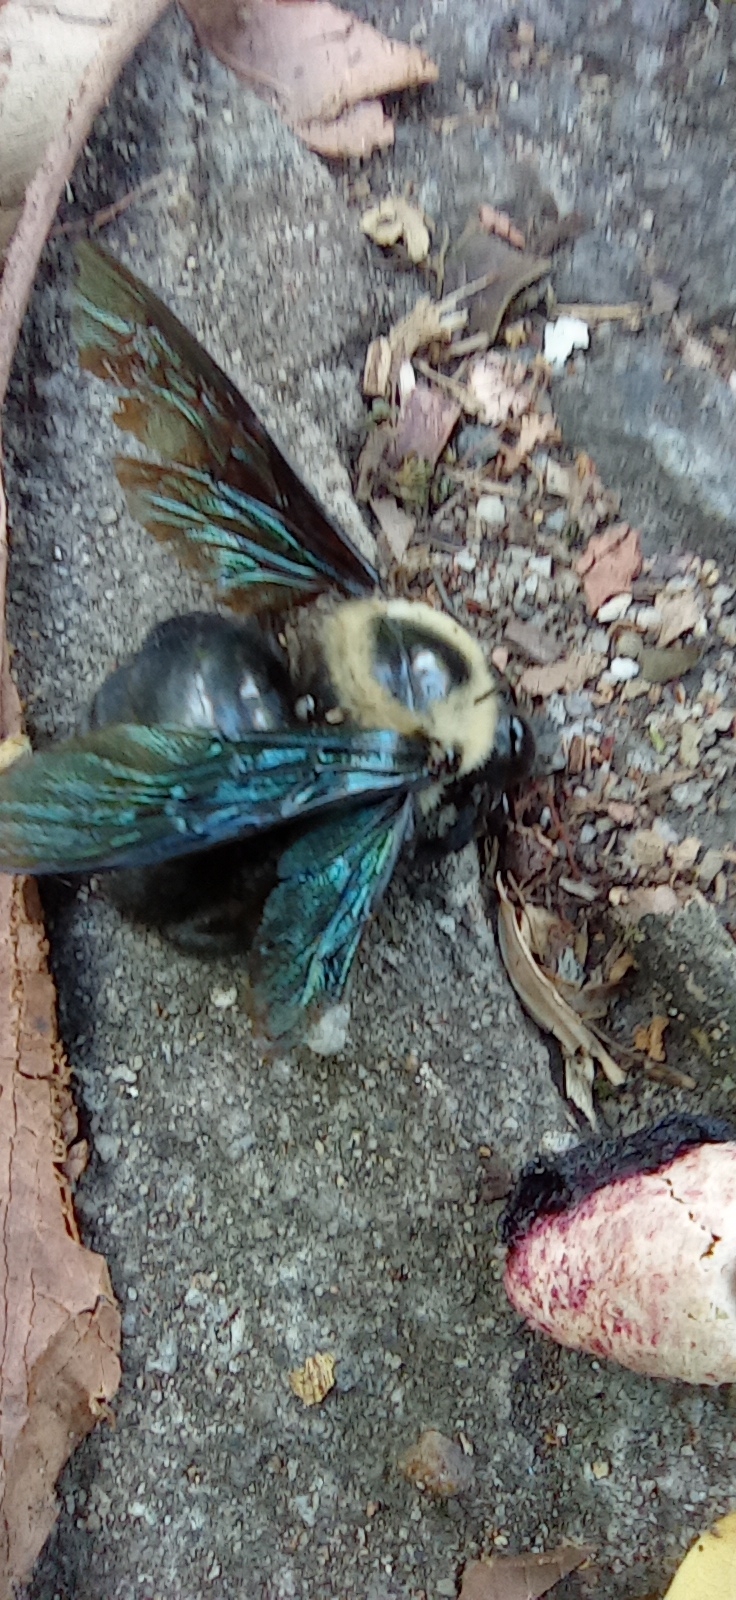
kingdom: Animalia
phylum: Arthropoda
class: Insecta
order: Hymenoptera
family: Apidae
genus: Xylocopa
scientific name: Xylocopa grisescens
